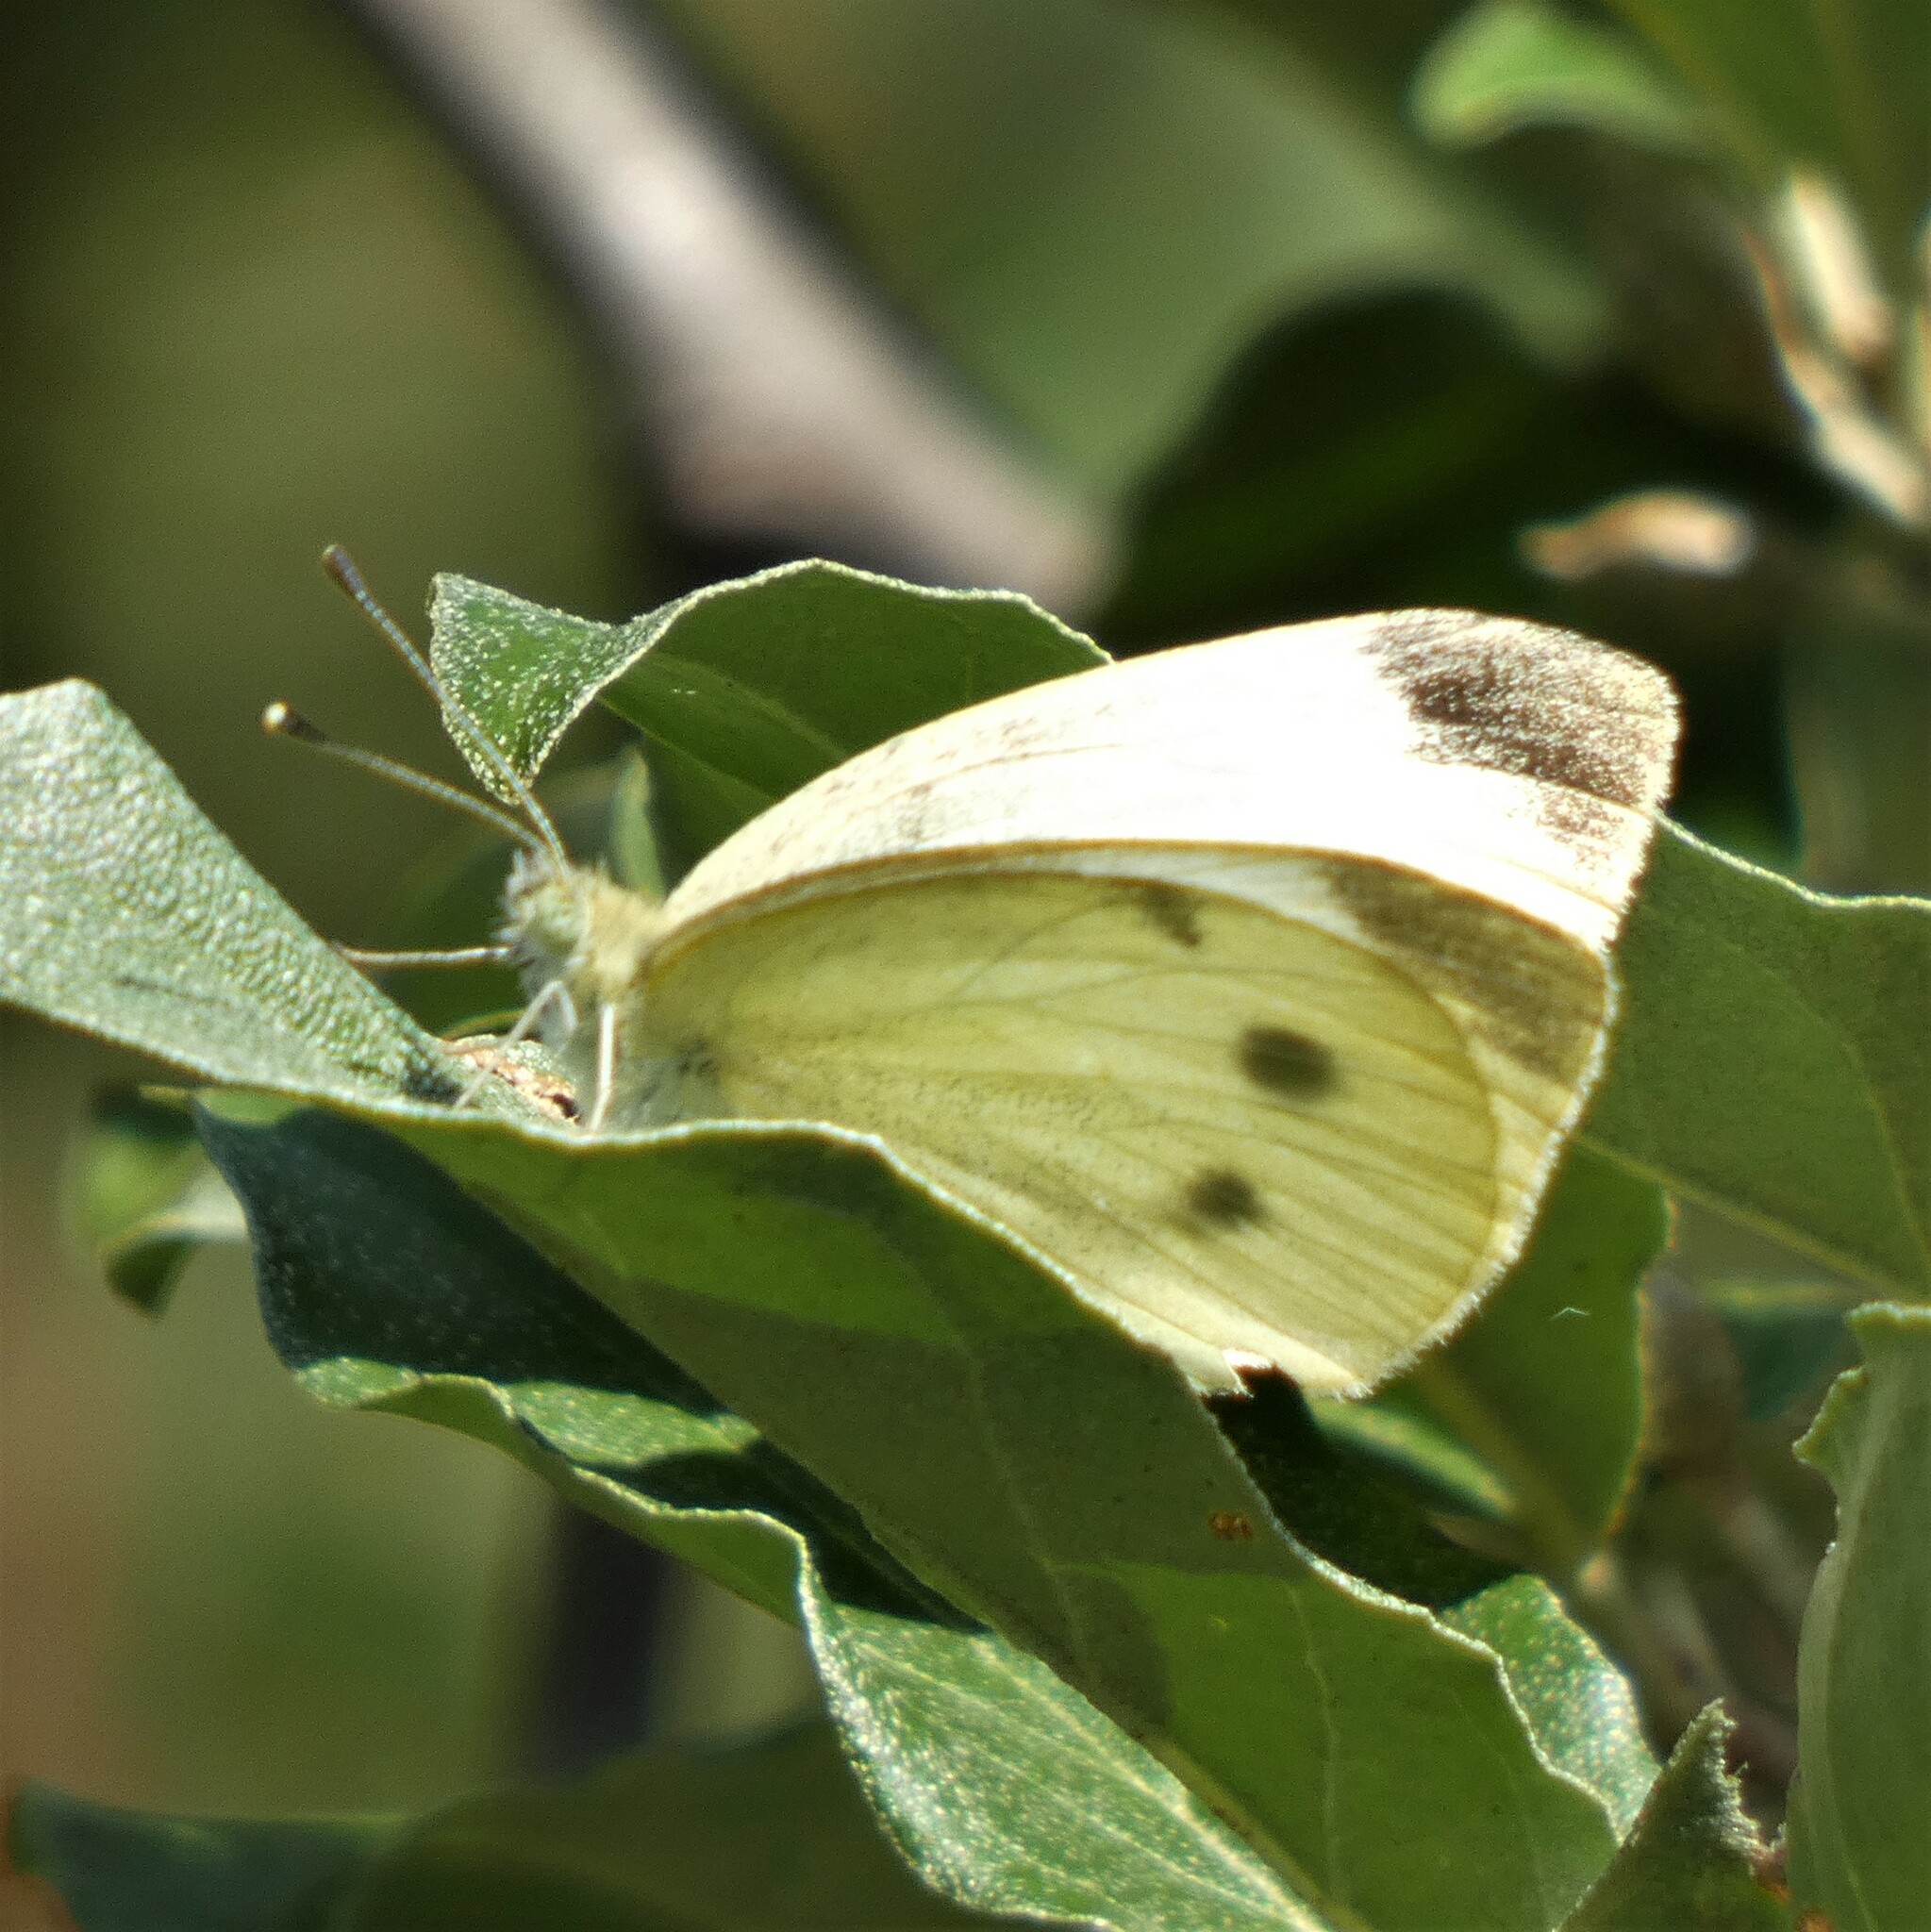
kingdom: Animalia
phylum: Arthropoda
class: Insecta
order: Lepidoptera
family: Pieridae
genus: Pieris
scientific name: Pieris rapae
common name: Small white
